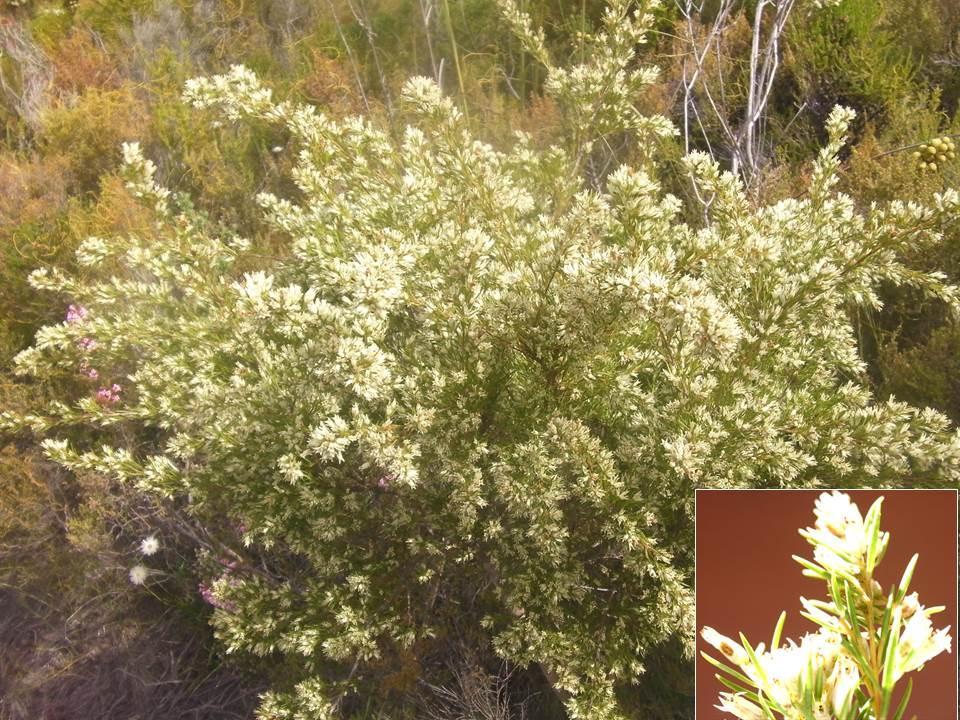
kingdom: Plantae
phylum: Tracheophyta
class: Magnoliopsida
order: Myrtales
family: Penaeaceae
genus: Stylapterus
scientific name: Stylapterus ericifolius
